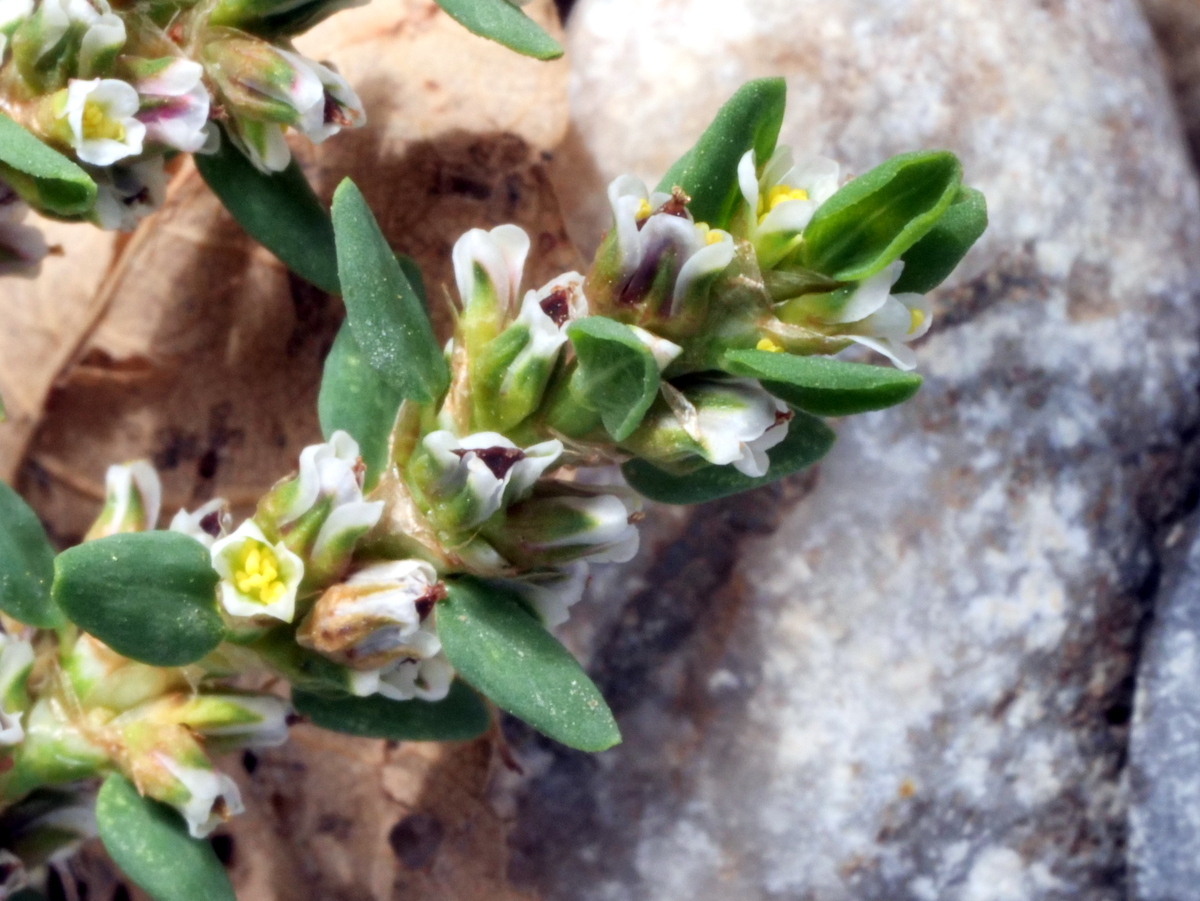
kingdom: Plantae
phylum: Tracheophyta
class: Magnoliopsida
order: Caryophyllales
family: Polygonaceae
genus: Polygonum
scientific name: Polygonum arenastrum
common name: Equal-leaved knotgrass
